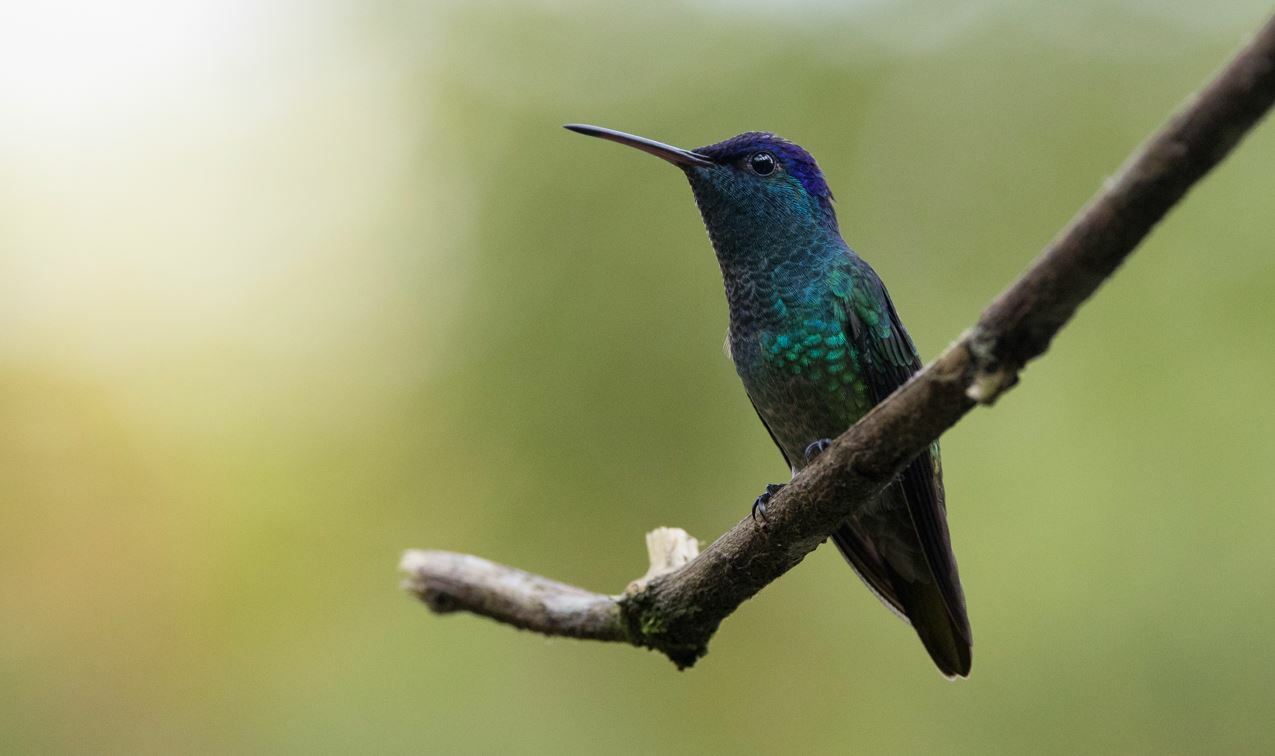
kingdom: Animalia
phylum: Chordata
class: Aves
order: Apodiformes
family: Trochilidae
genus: Chrysuronia
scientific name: Chrysuronia oenone
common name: Golden-tailed sapphire
